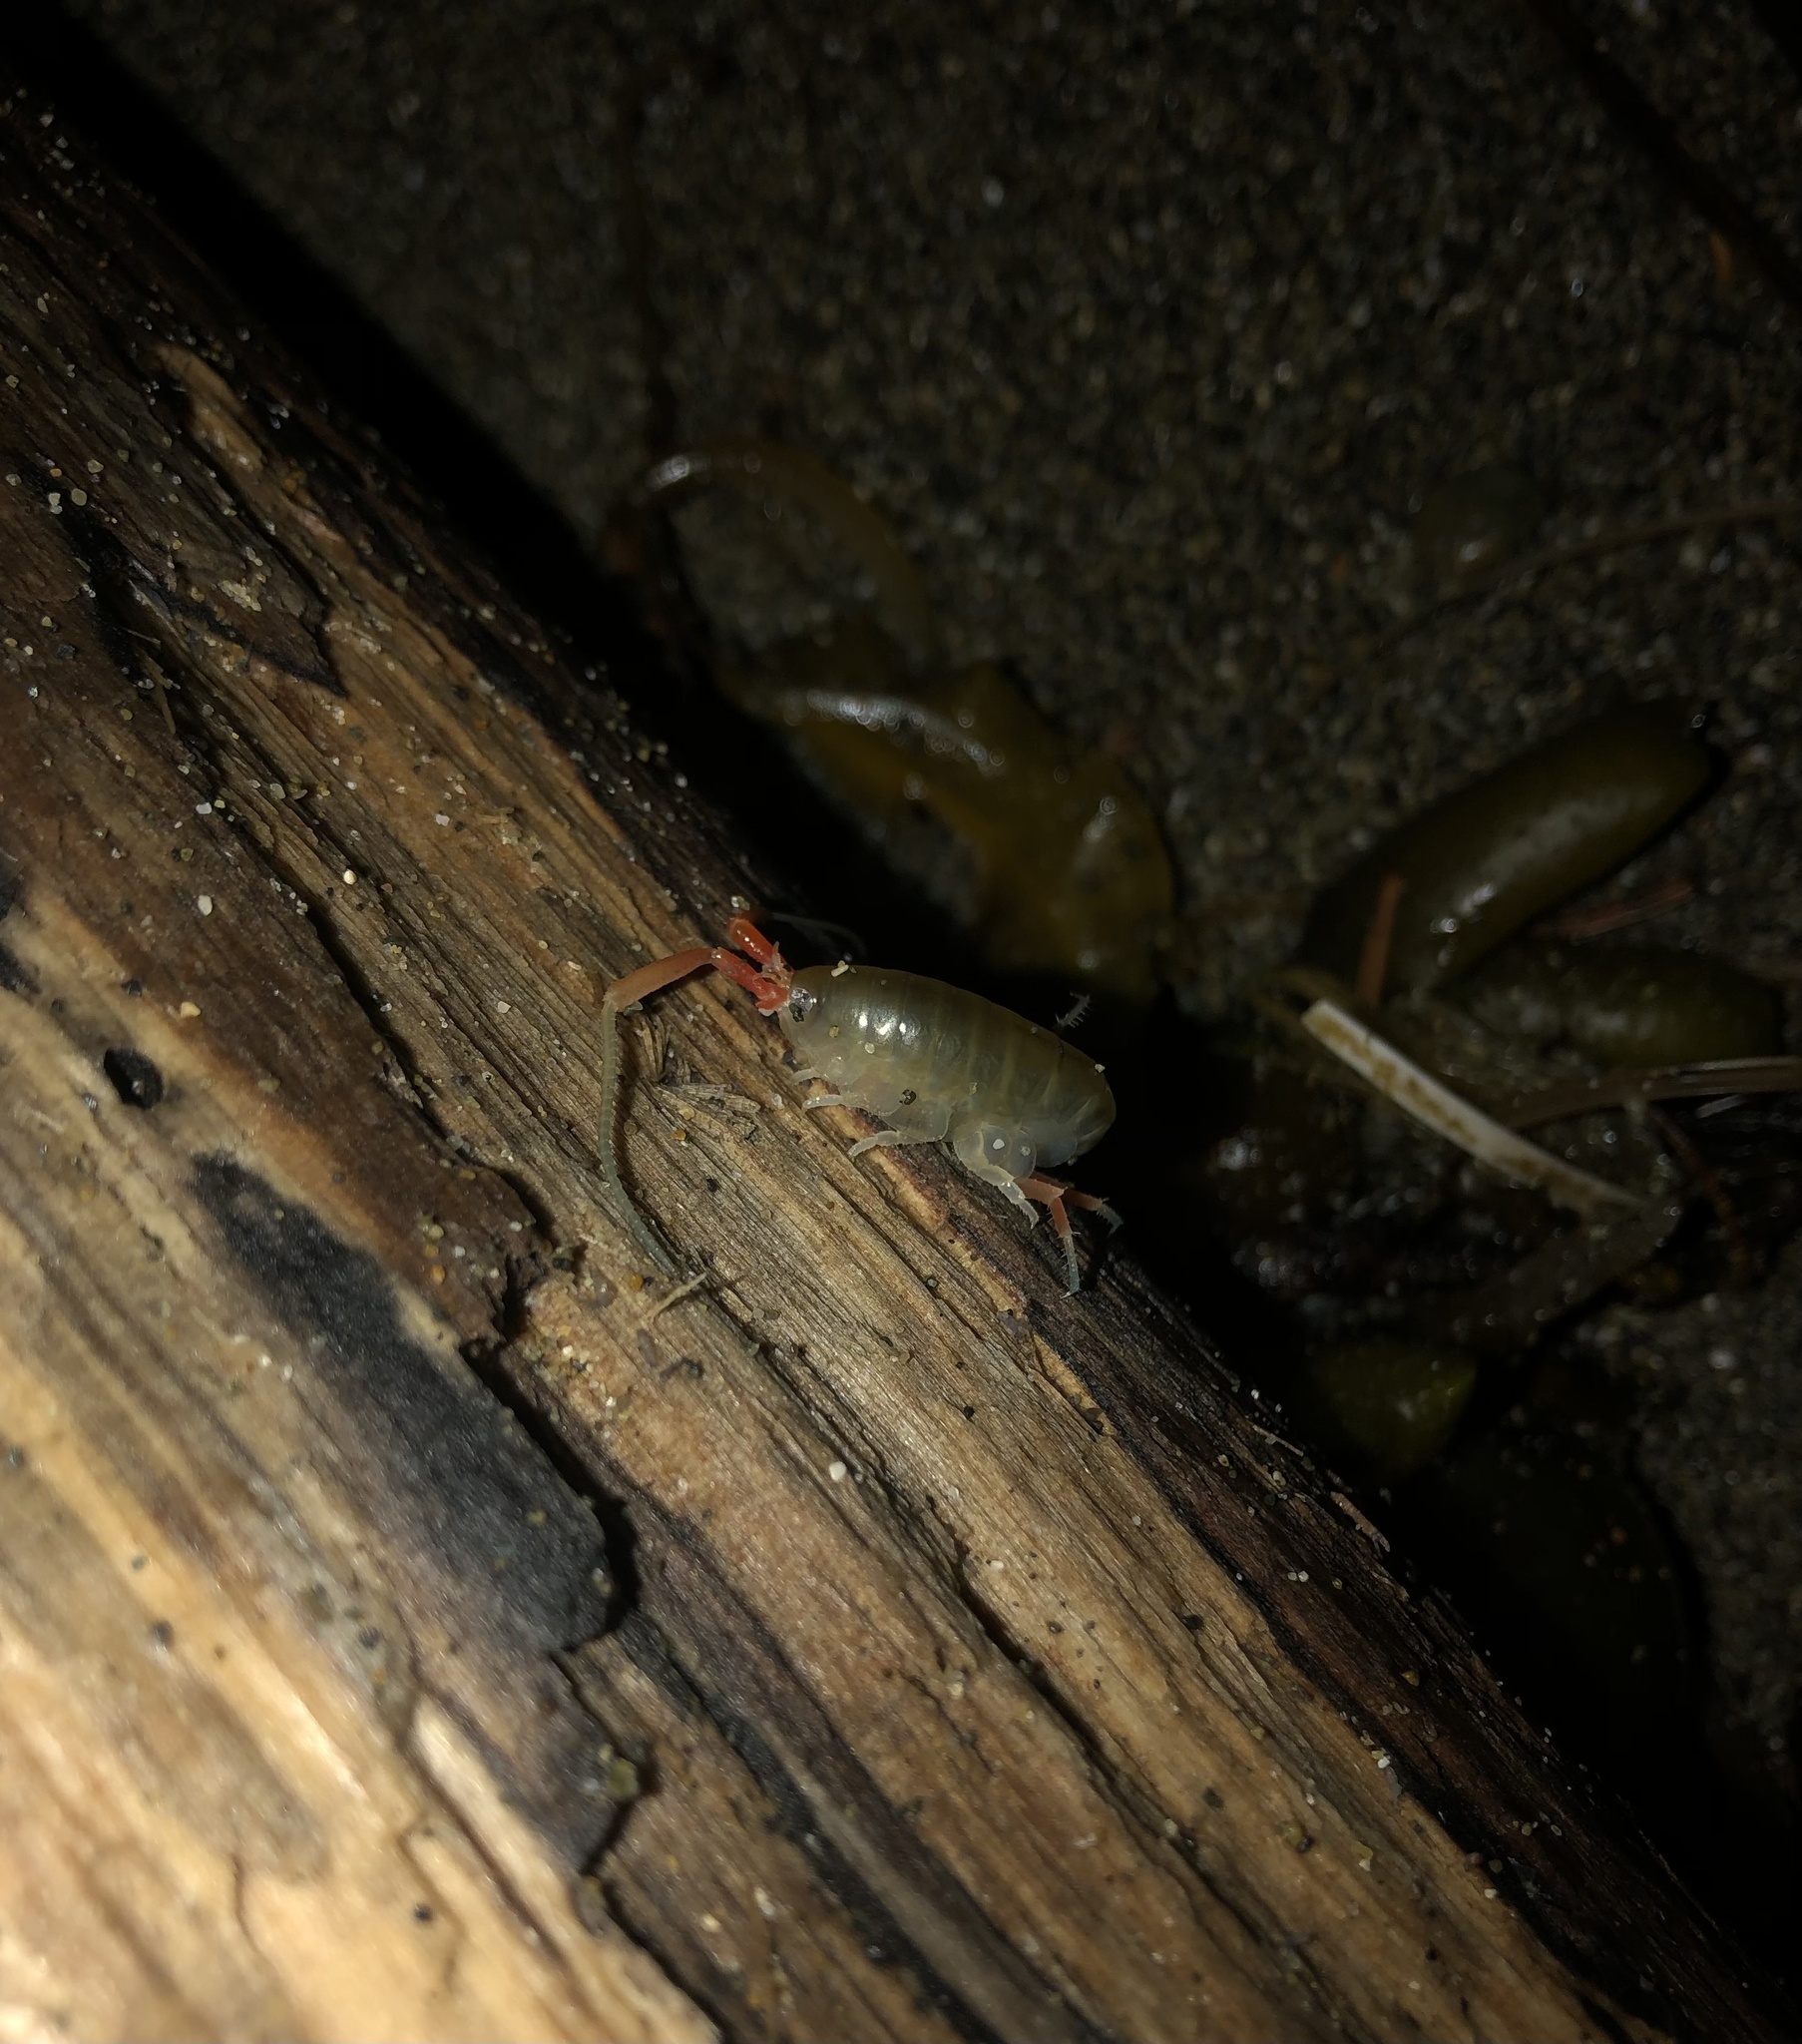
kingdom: Animalia
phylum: Arthropoda
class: Malacostraca
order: Amphipoda
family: Talitridae
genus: Megalorchestia
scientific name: Megalorchestia californiana
